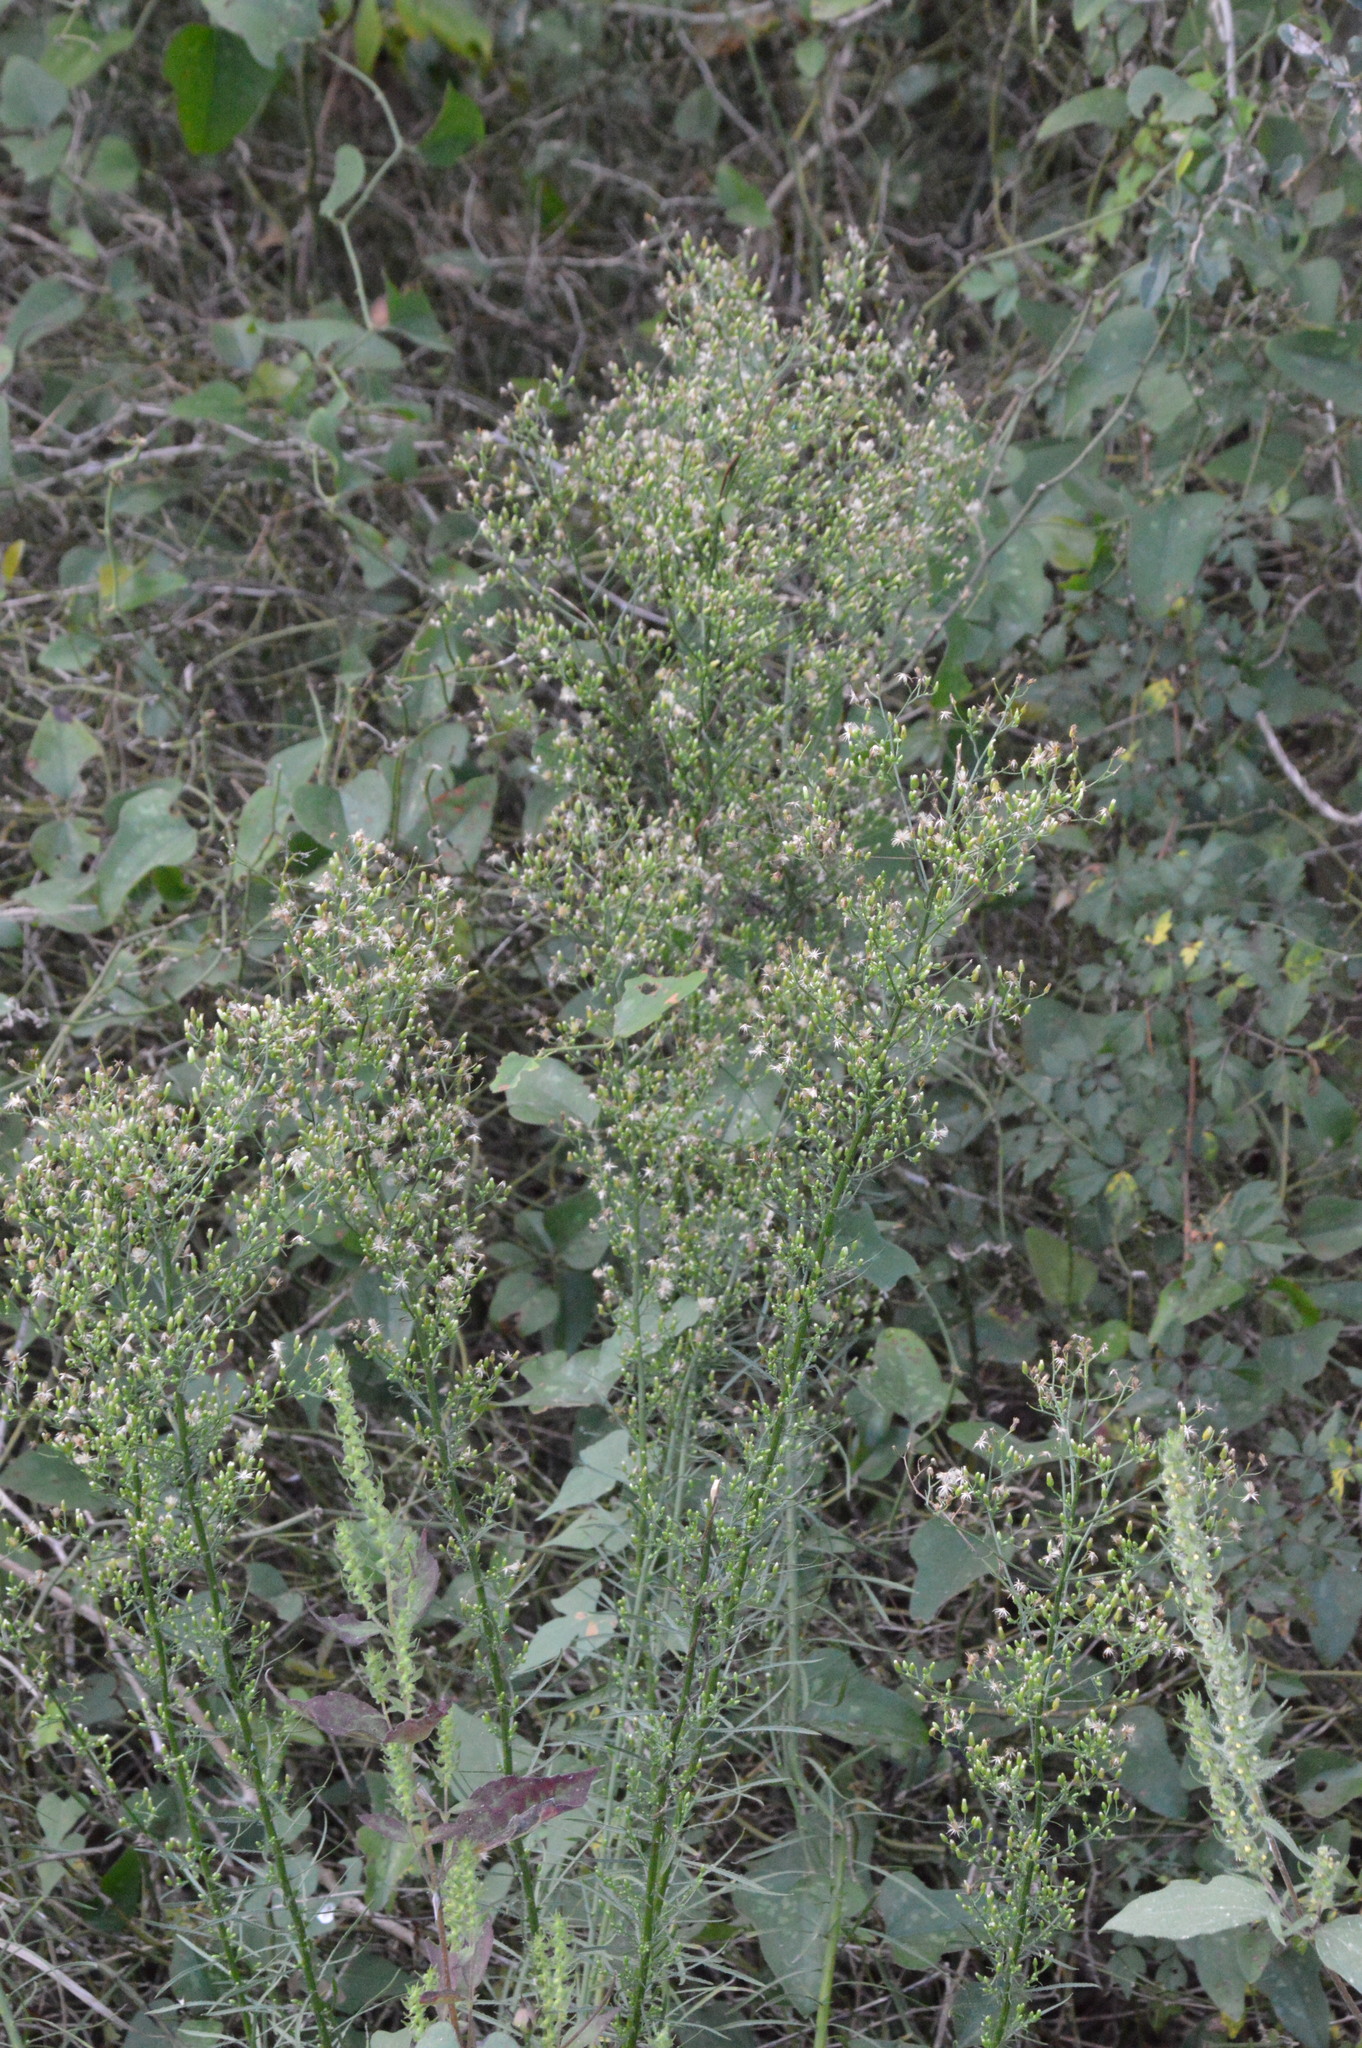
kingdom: Plantae
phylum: Tracheophyta
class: Magnoliopsida
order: Asterales
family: Asteraceae
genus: Erigeron
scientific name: Erigeron canadensis
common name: Canadian fleabane
